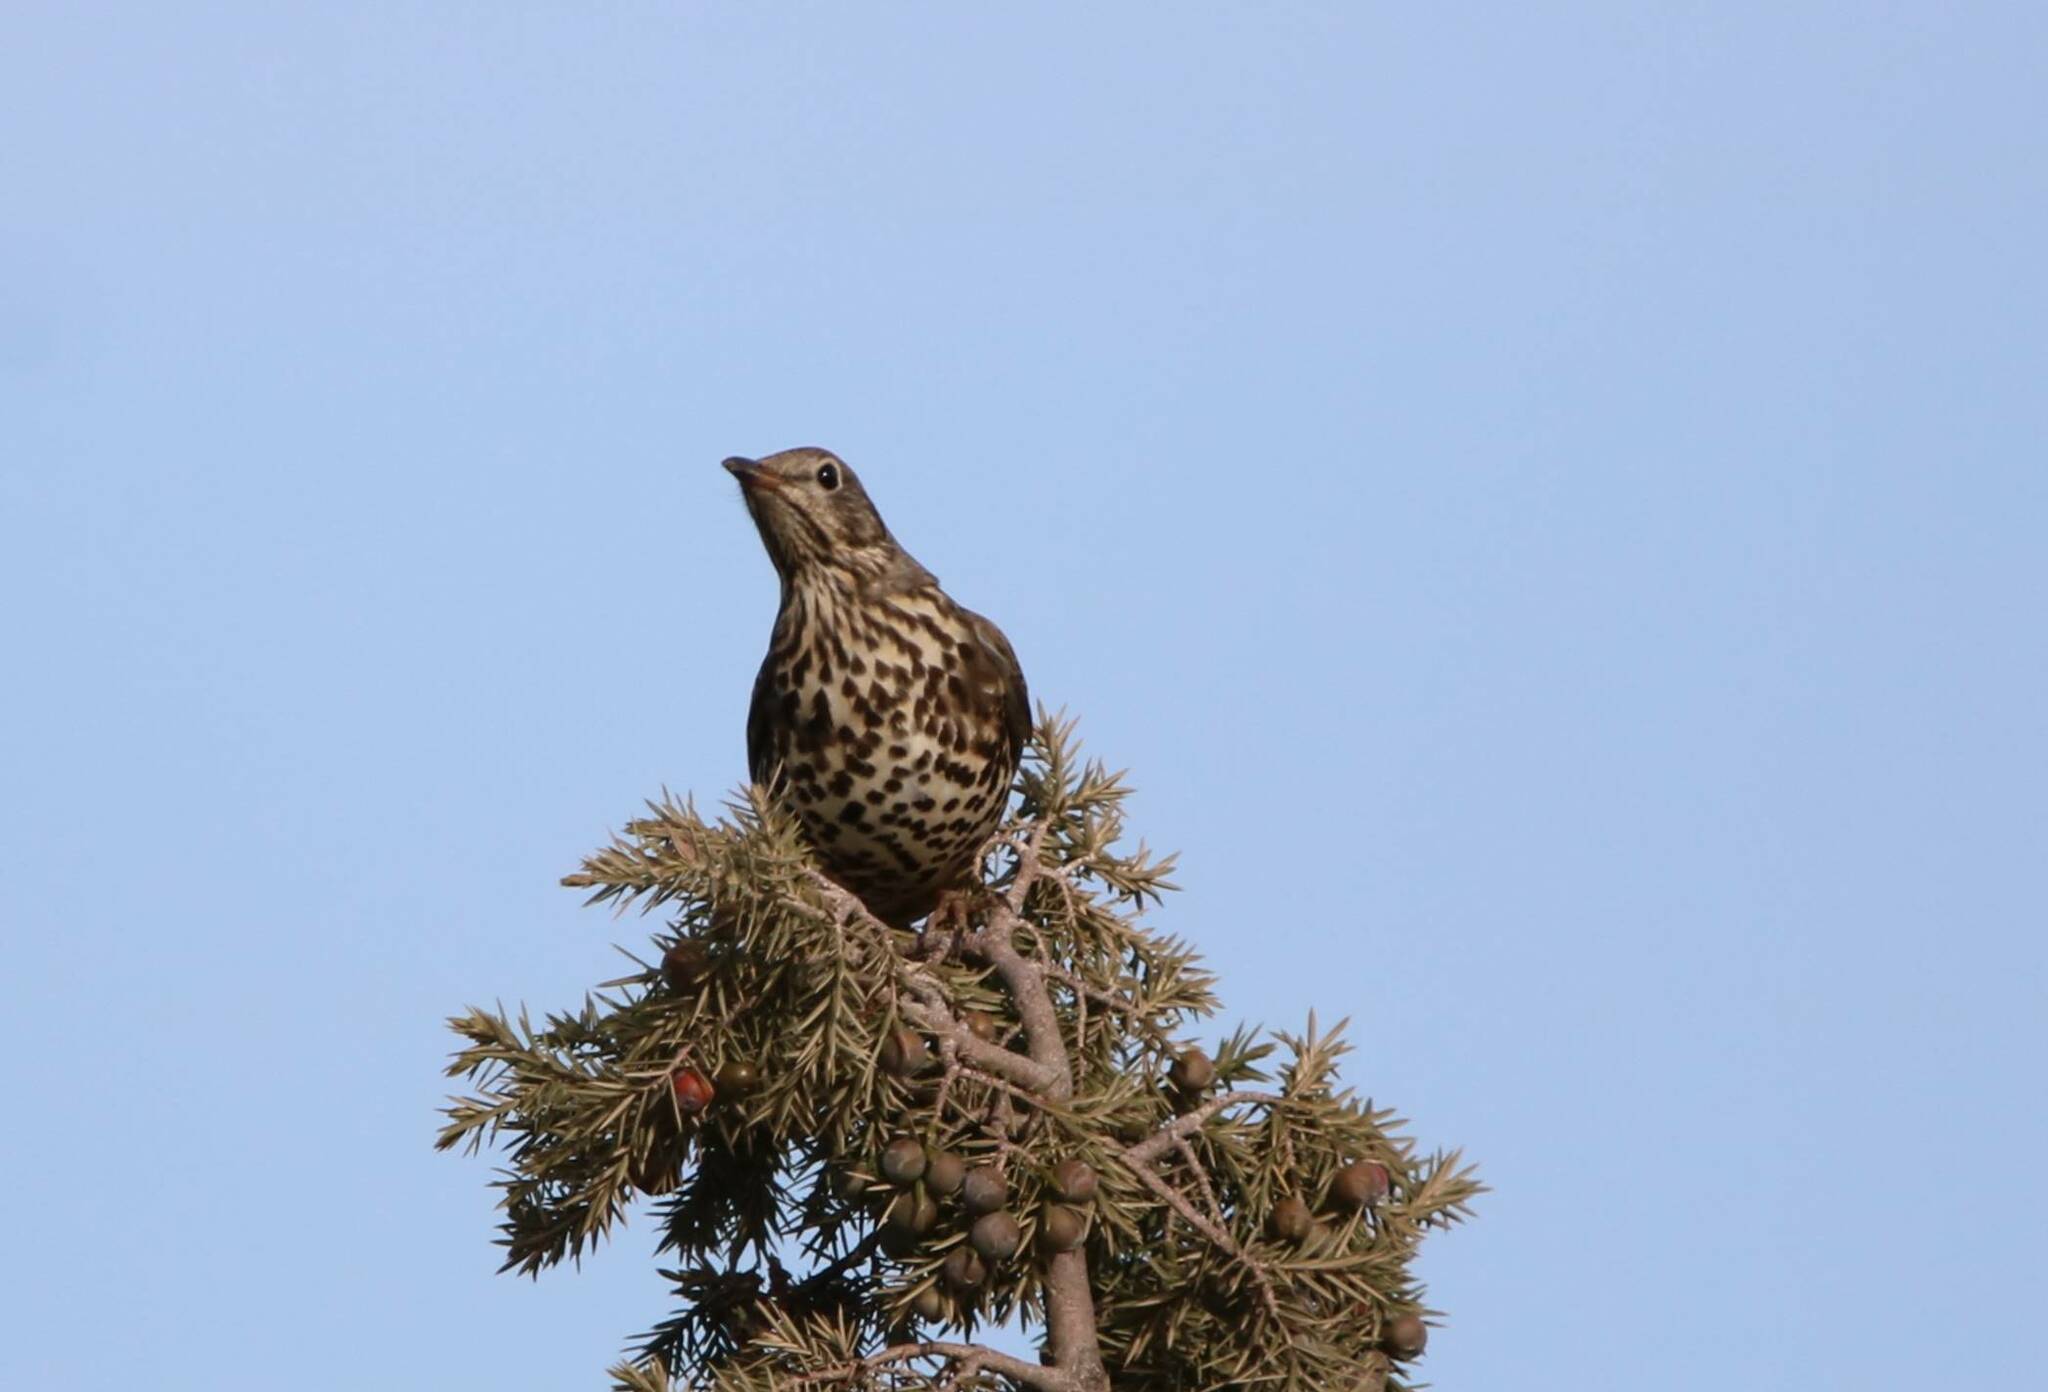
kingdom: Animalia
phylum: Chordata
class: Aves
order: Passeriformes
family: Turdidae
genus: Turdus
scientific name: Turdus viscivorus
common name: Mistle thrush
